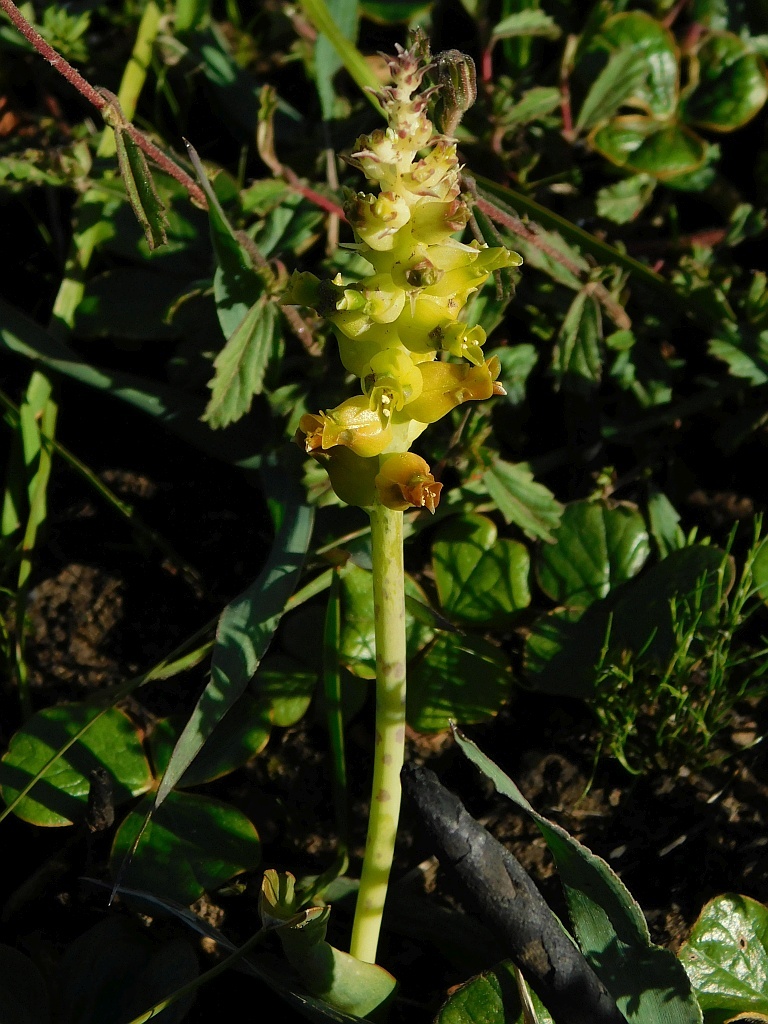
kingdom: Plantae
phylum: Tracheophyta
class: Liliopsida
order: Asparagales
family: Asparagaceae
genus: Lachenalia
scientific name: Lachenalia lutea
